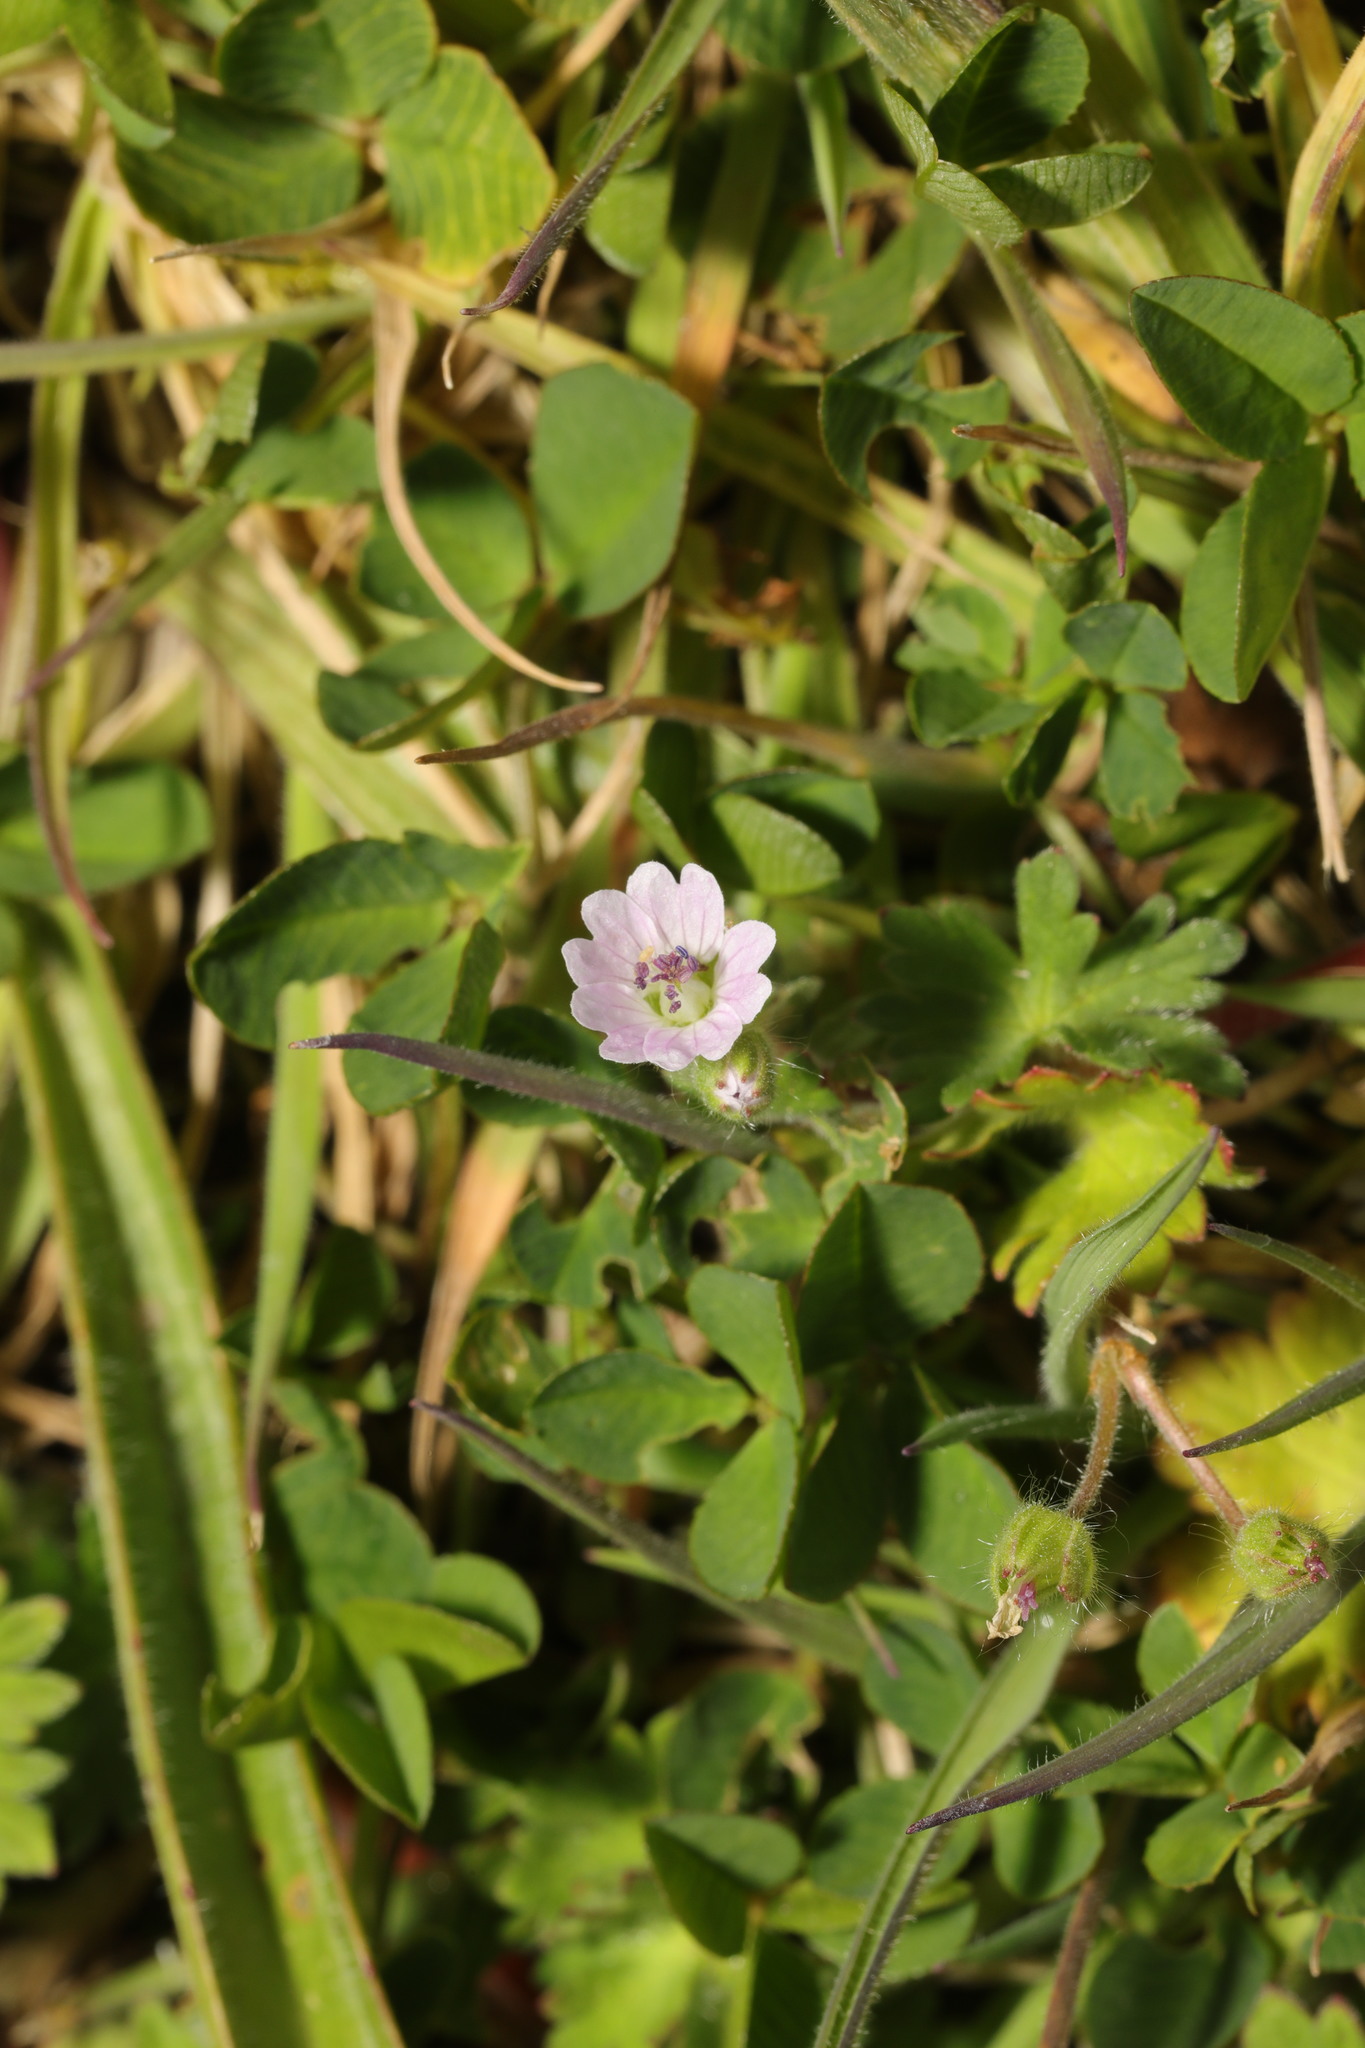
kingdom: Plantae
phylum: Tracheophyta
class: Magnoliopsida
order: Geraniales
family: Geraniaceae
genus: Geranium
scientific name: Geranium molle
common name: Dove's-foot crane's-bill
